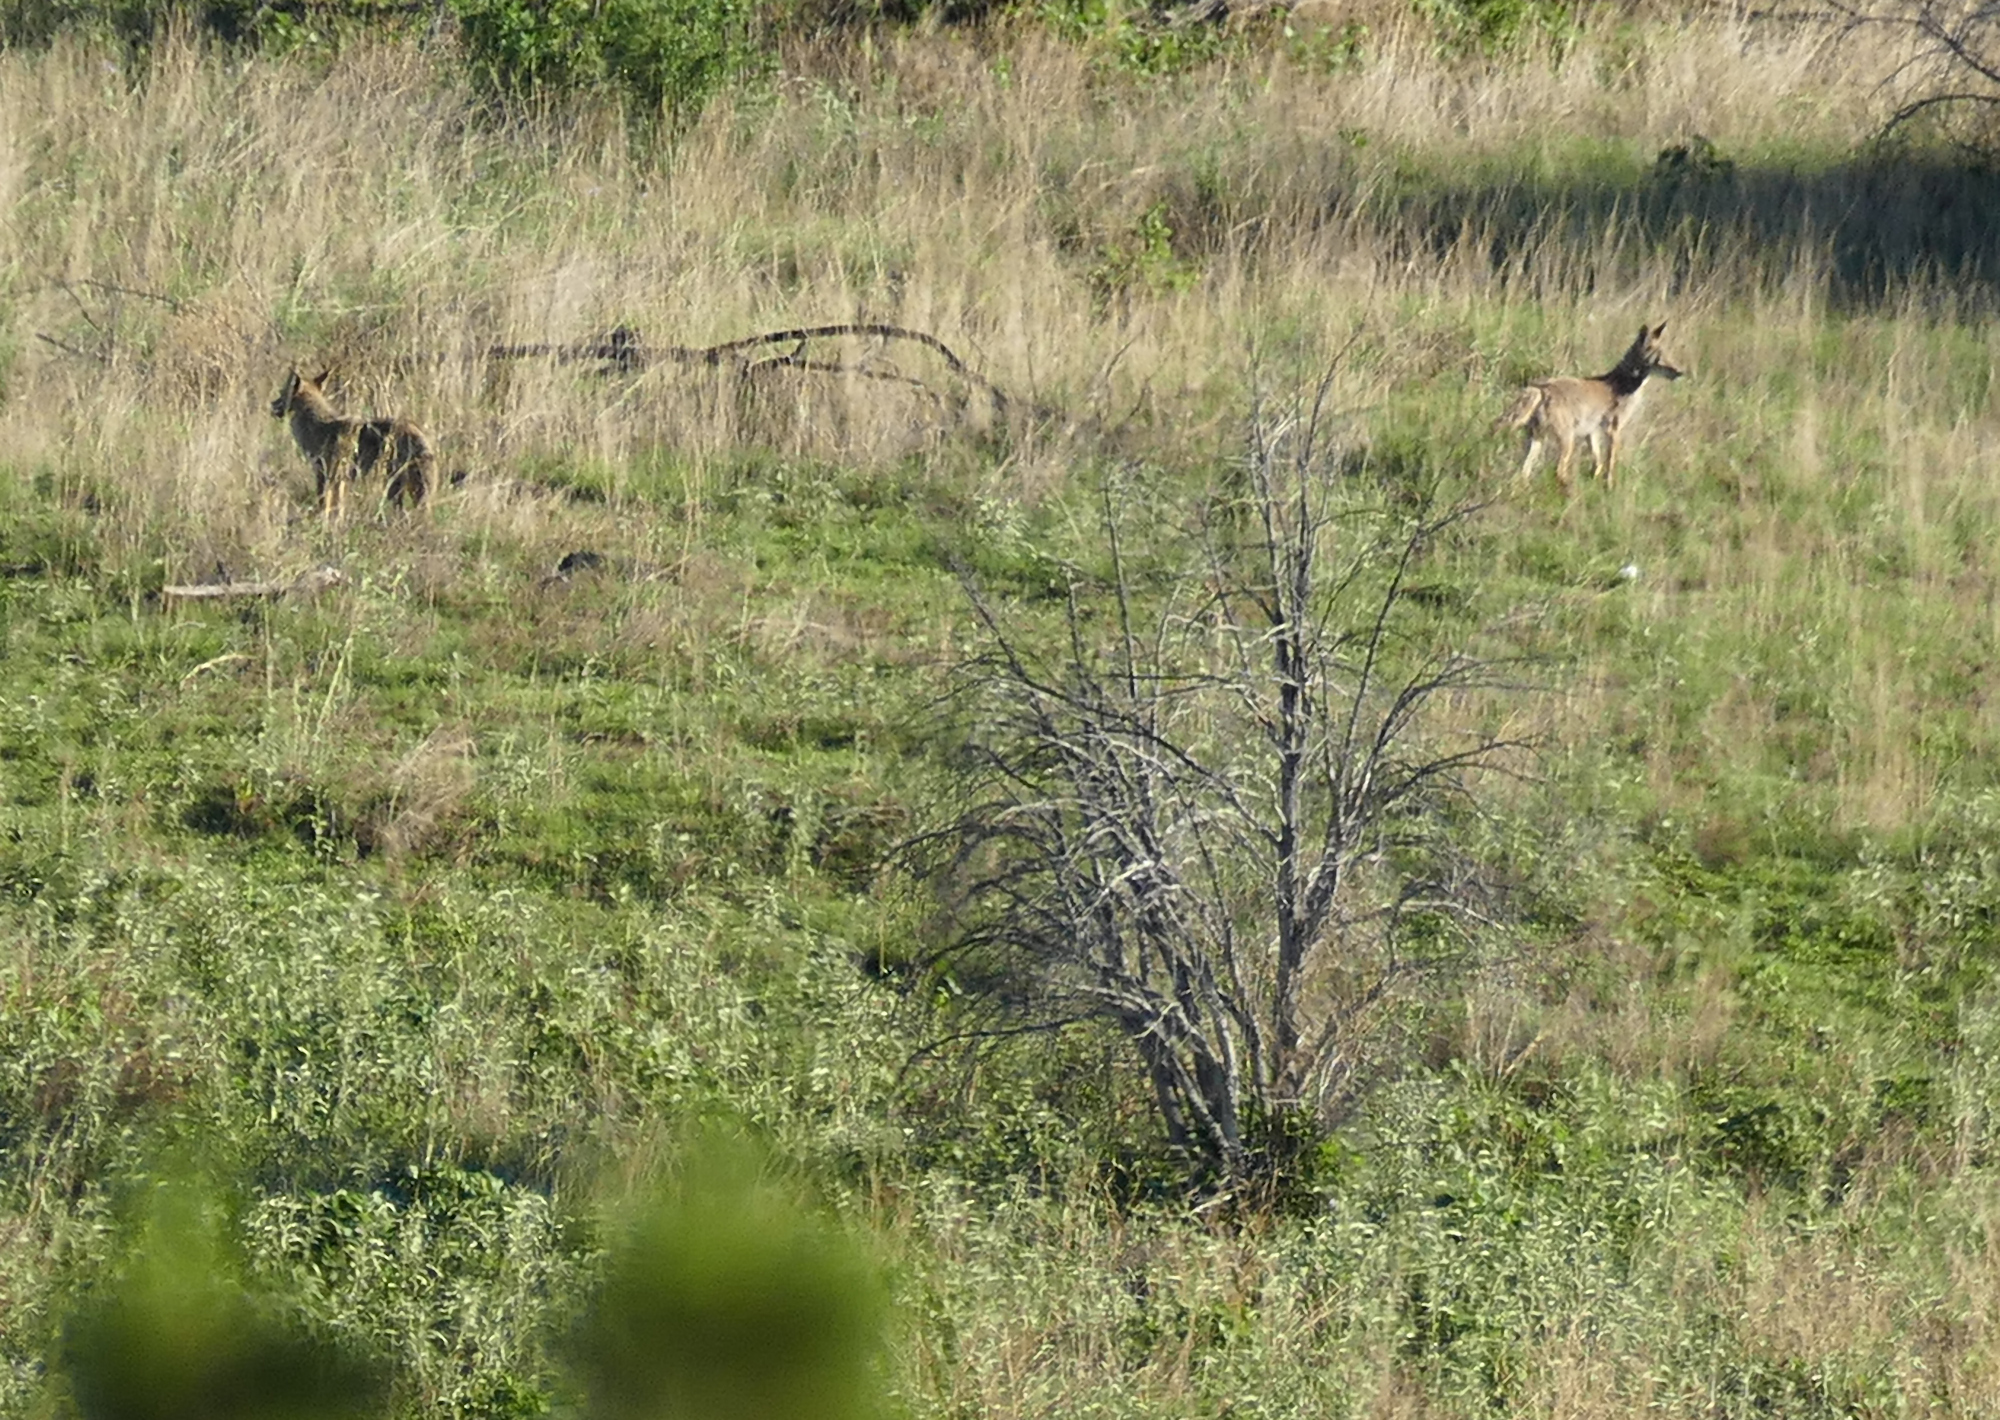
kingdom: Animalia
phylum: Chordata
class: Mammalia
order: Carnivora
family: Canidae
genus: Canis
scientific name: Canis latrans
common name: Coyote
